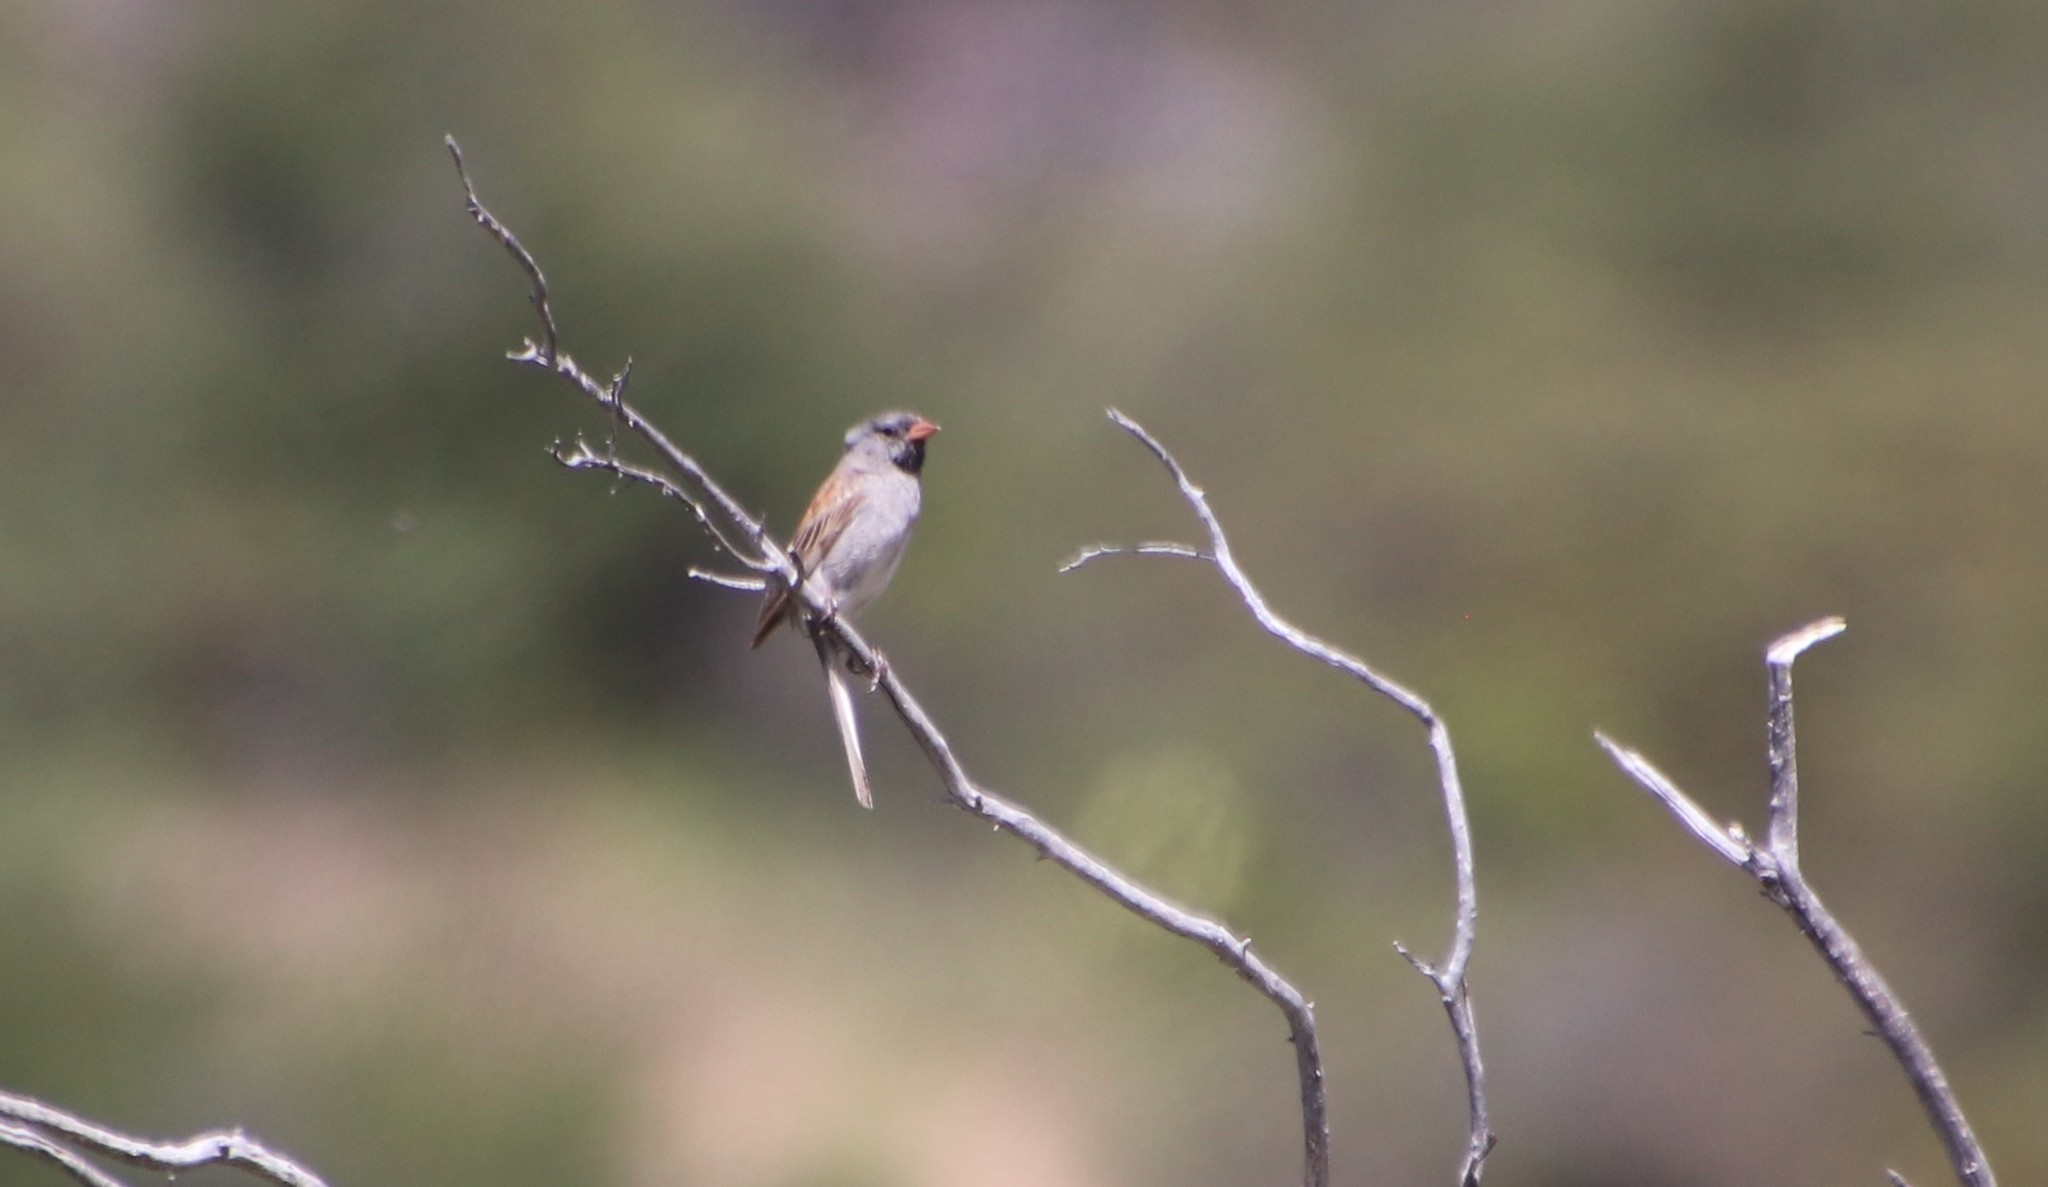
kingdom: Animalia
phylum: Chordata
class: Aves
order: Passeriformes
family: Passerellidae
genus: Spizella
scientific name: Spizella atrogularis
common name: Black-chinned sparrow
